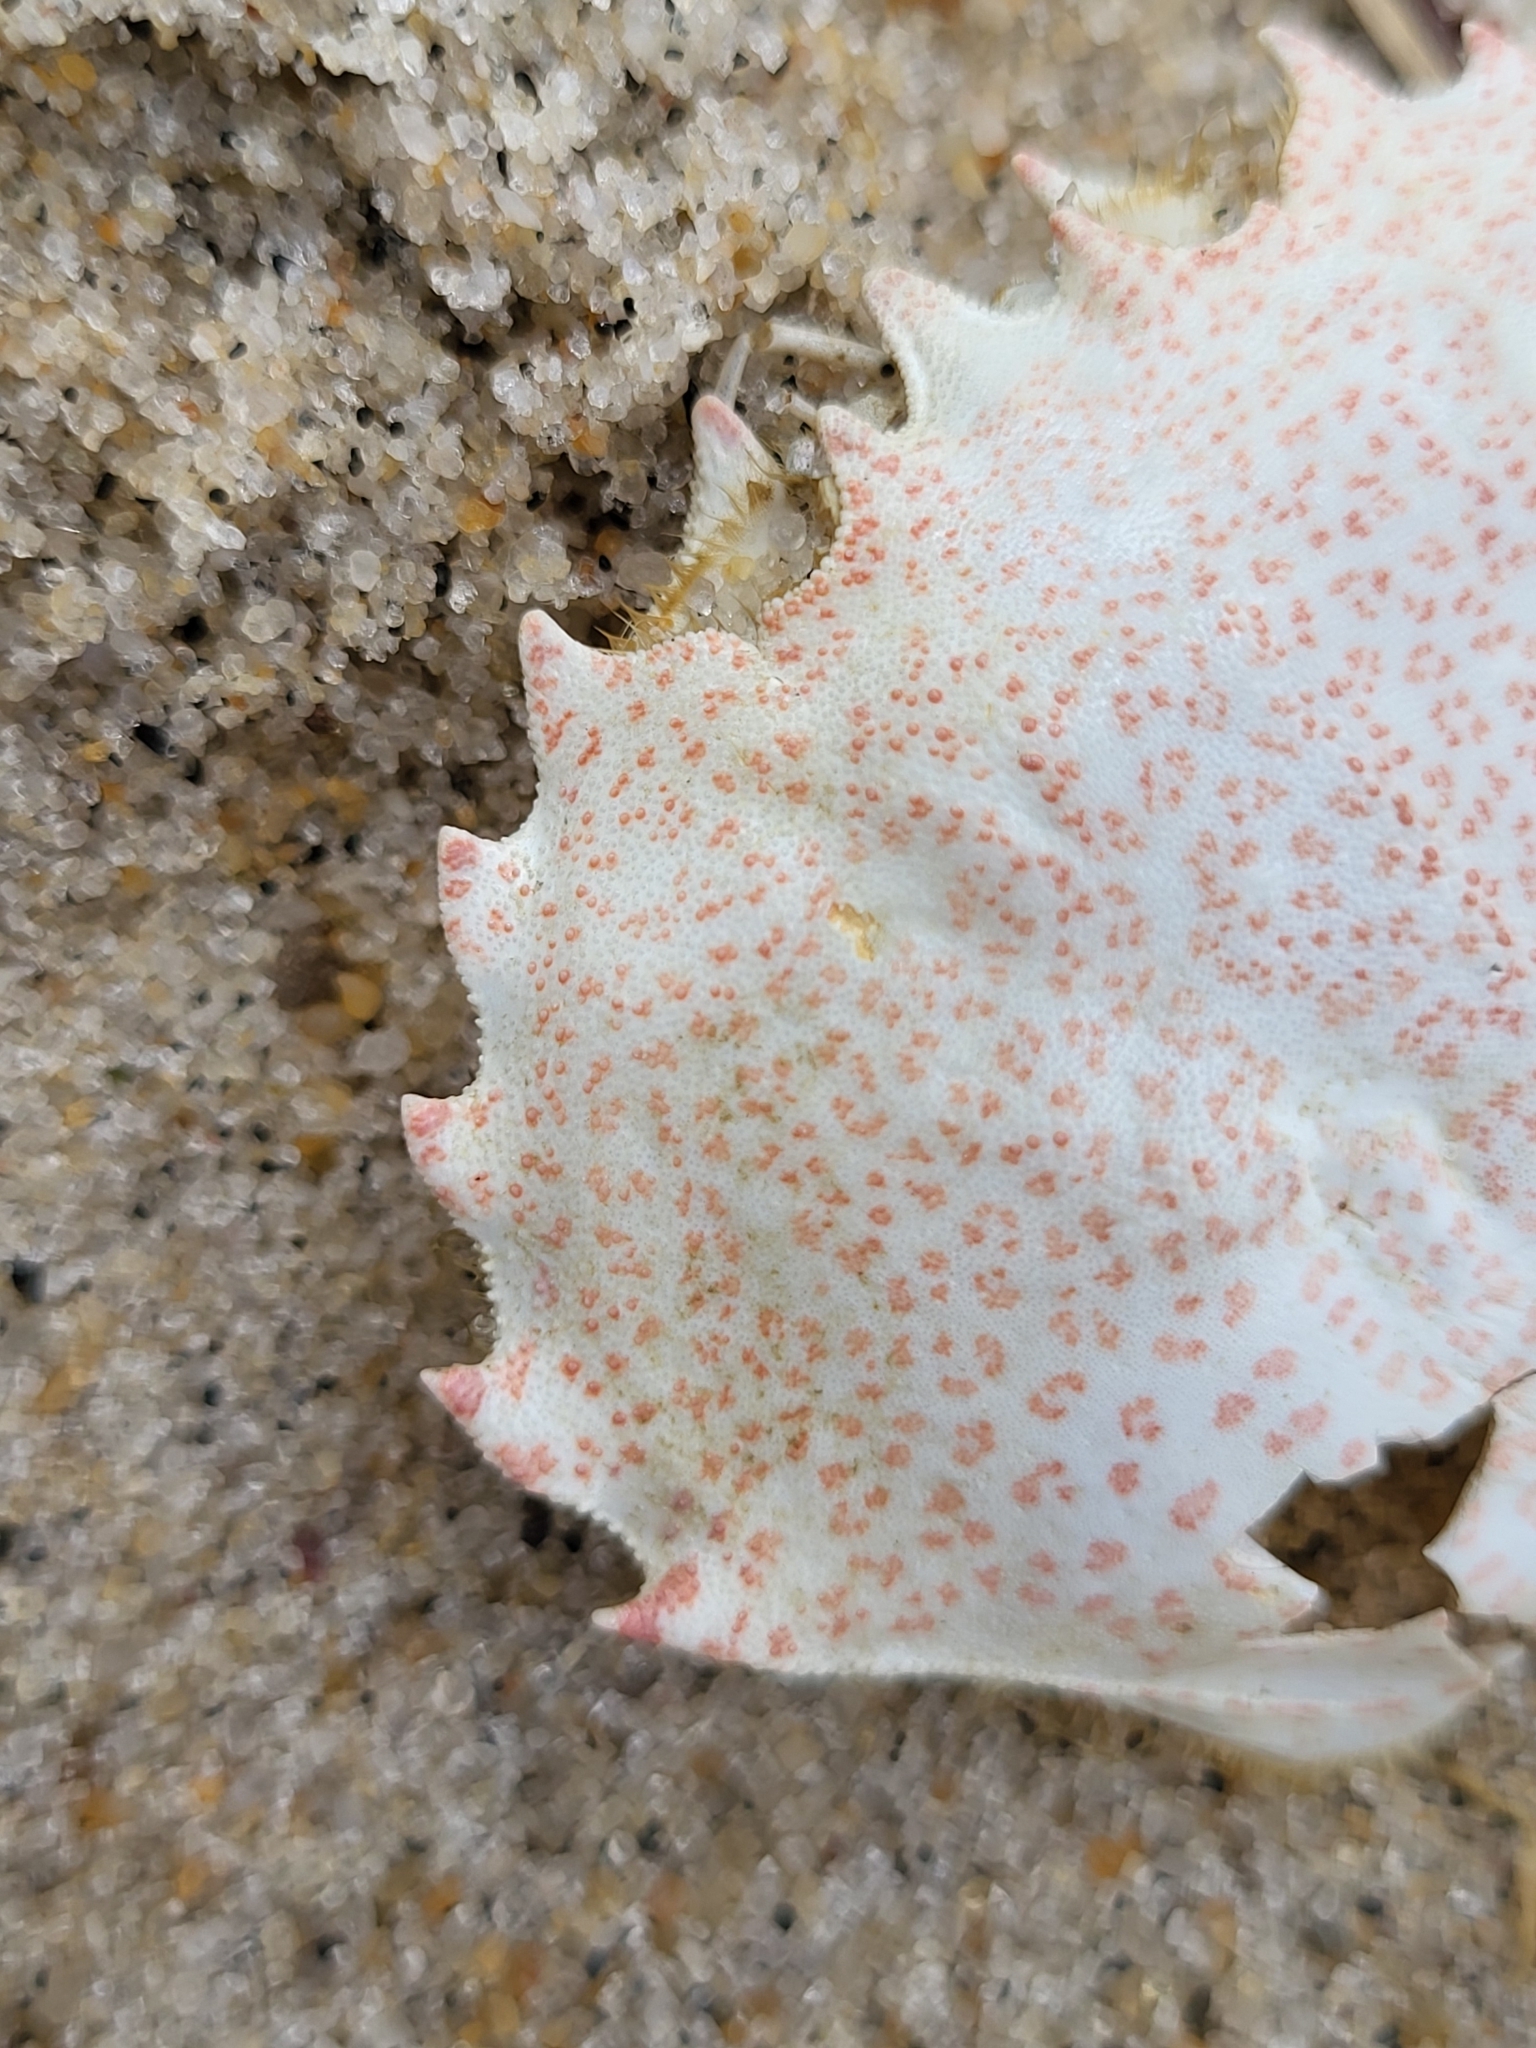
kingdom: Animalia
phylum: Arthropoda
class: Malacostraca
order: Decapoda
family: Ovalipidae
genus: Ovalipes
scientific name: Ovalipes ocellatus
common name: Lady crab
